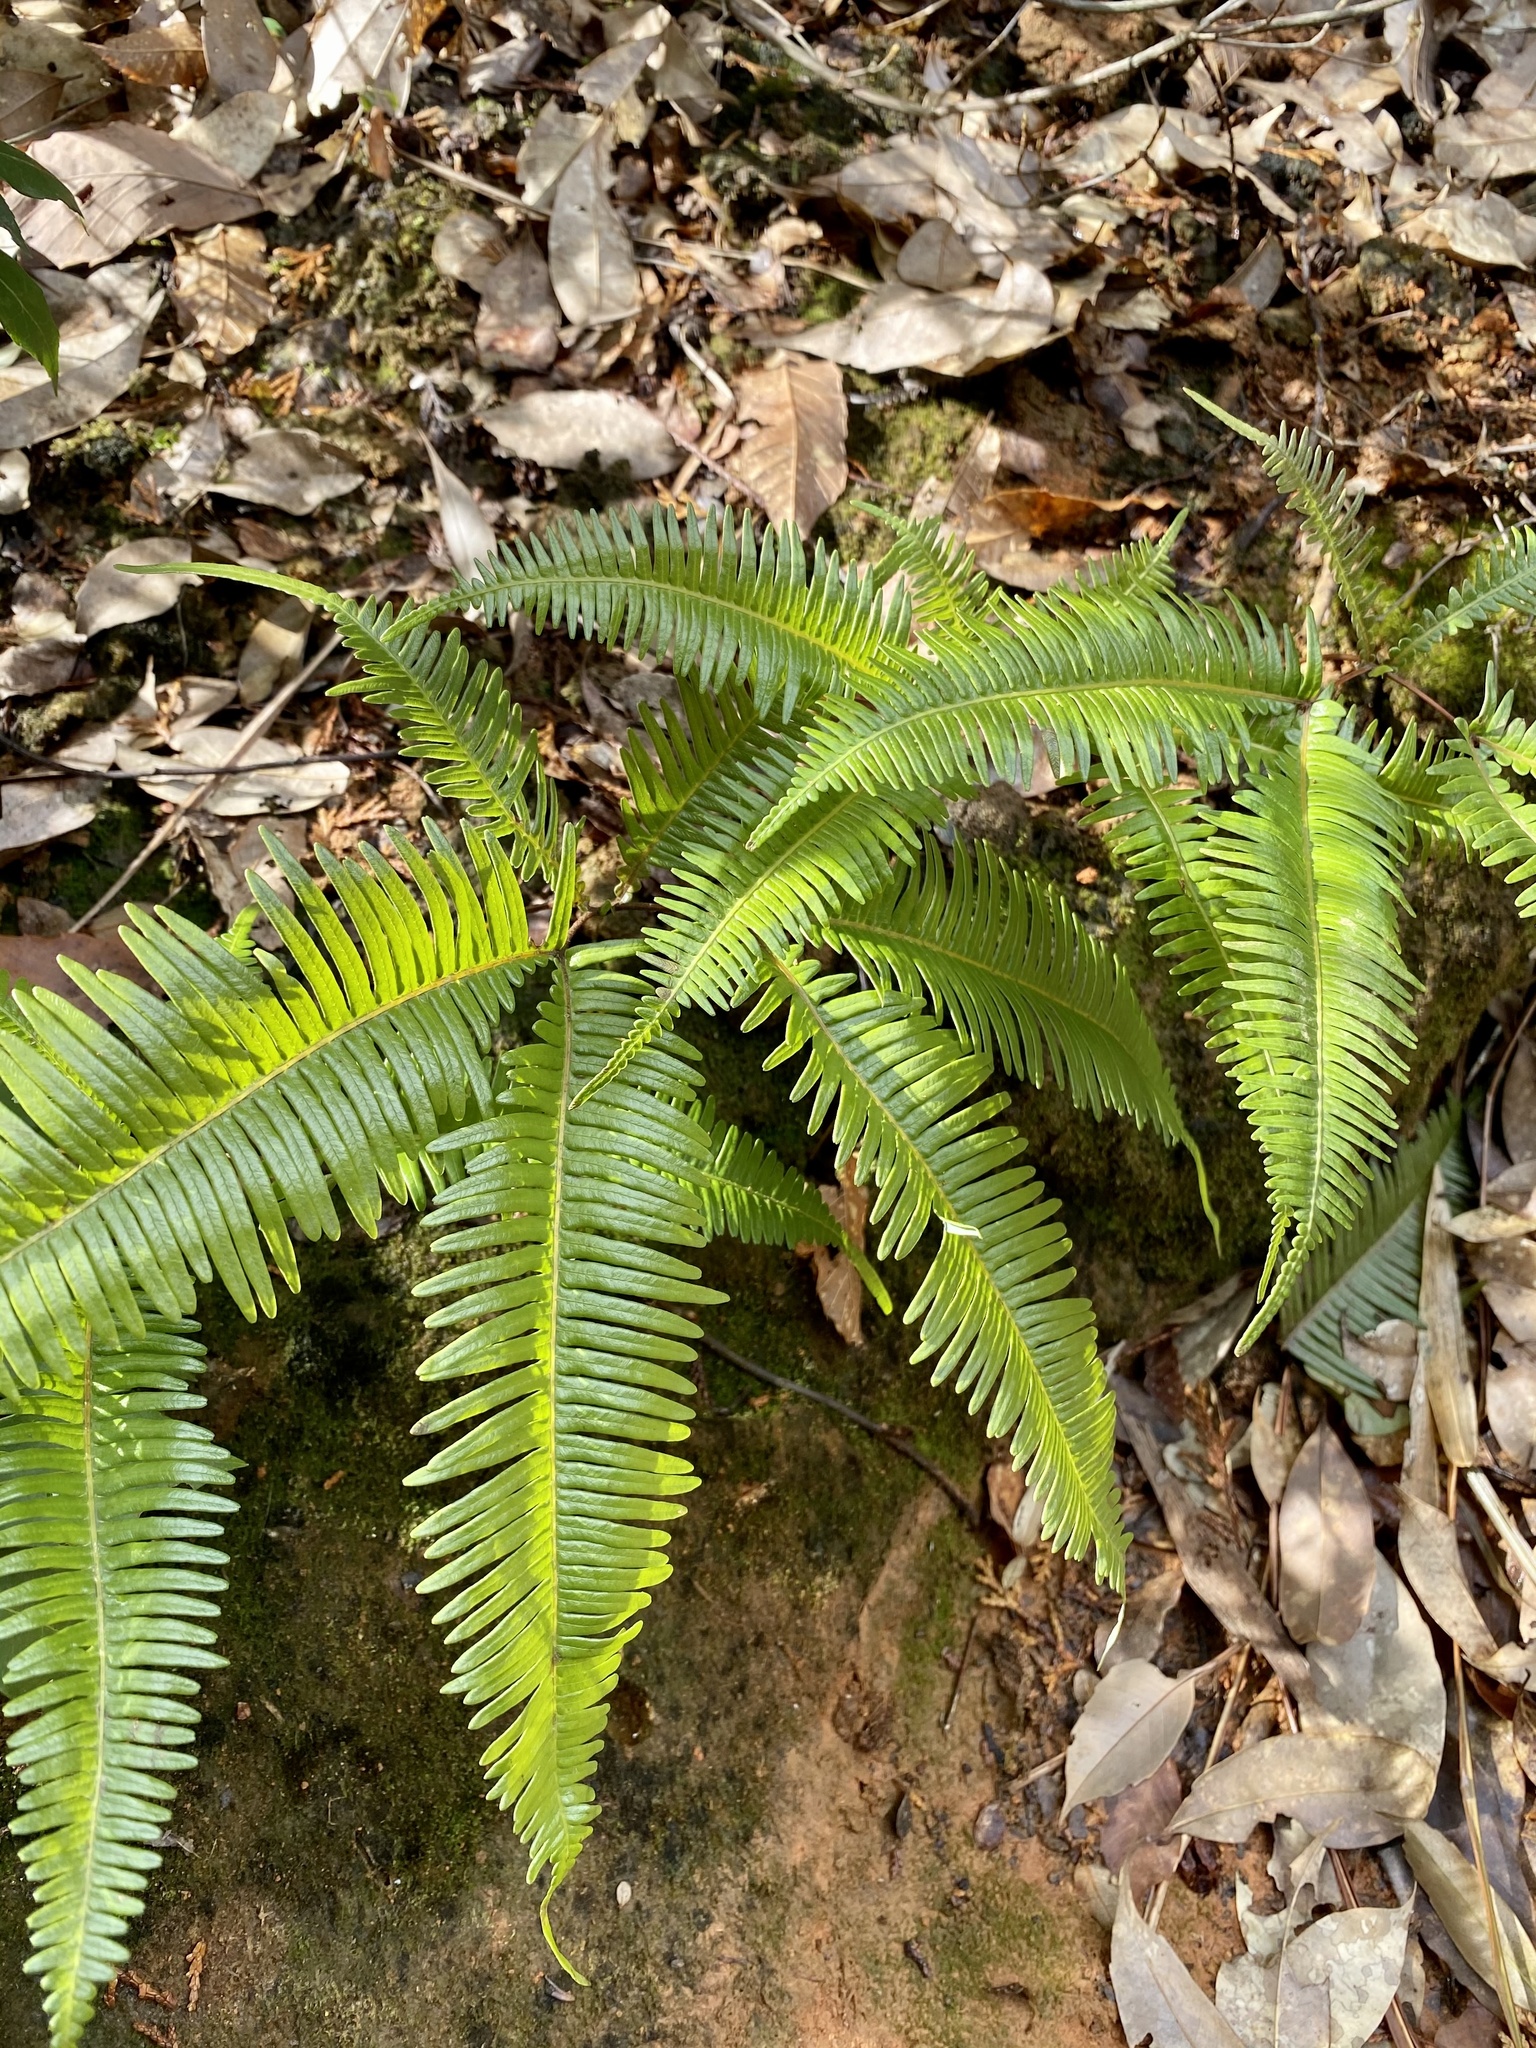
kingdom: Plantae
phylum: Tracheophyta
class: Polypodiopsida
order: Gleicheniales
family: Gleicheniaceae
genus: Dicranopteris
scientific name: Dicranopteris linearis
